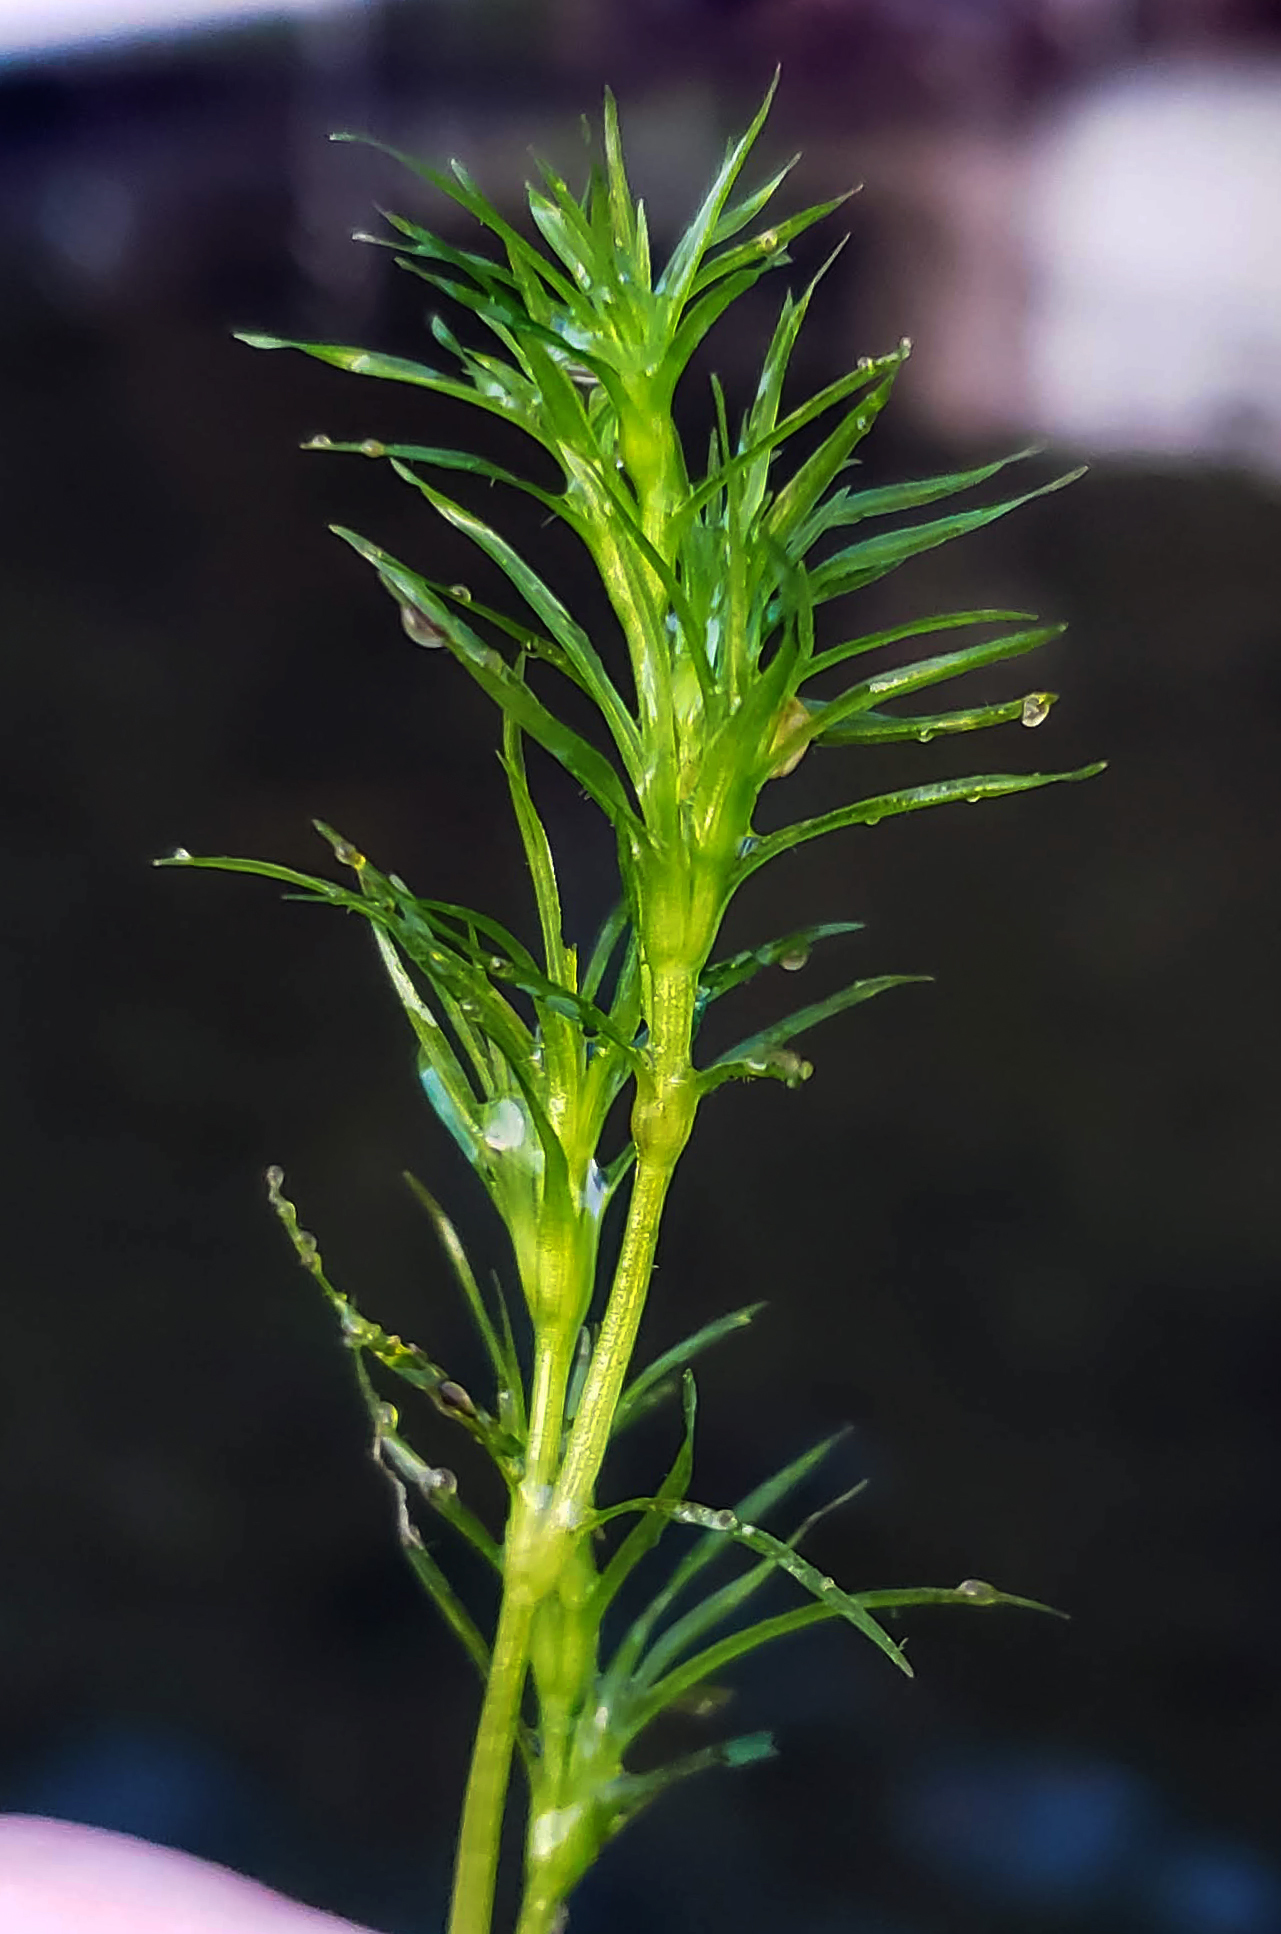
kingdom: Plantae
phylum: Tracheophyta
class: Liliopsida
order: Alismatales
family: Hydrocharitaceae
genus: Najas
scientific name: Najas flexilis
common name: Slender naiad
